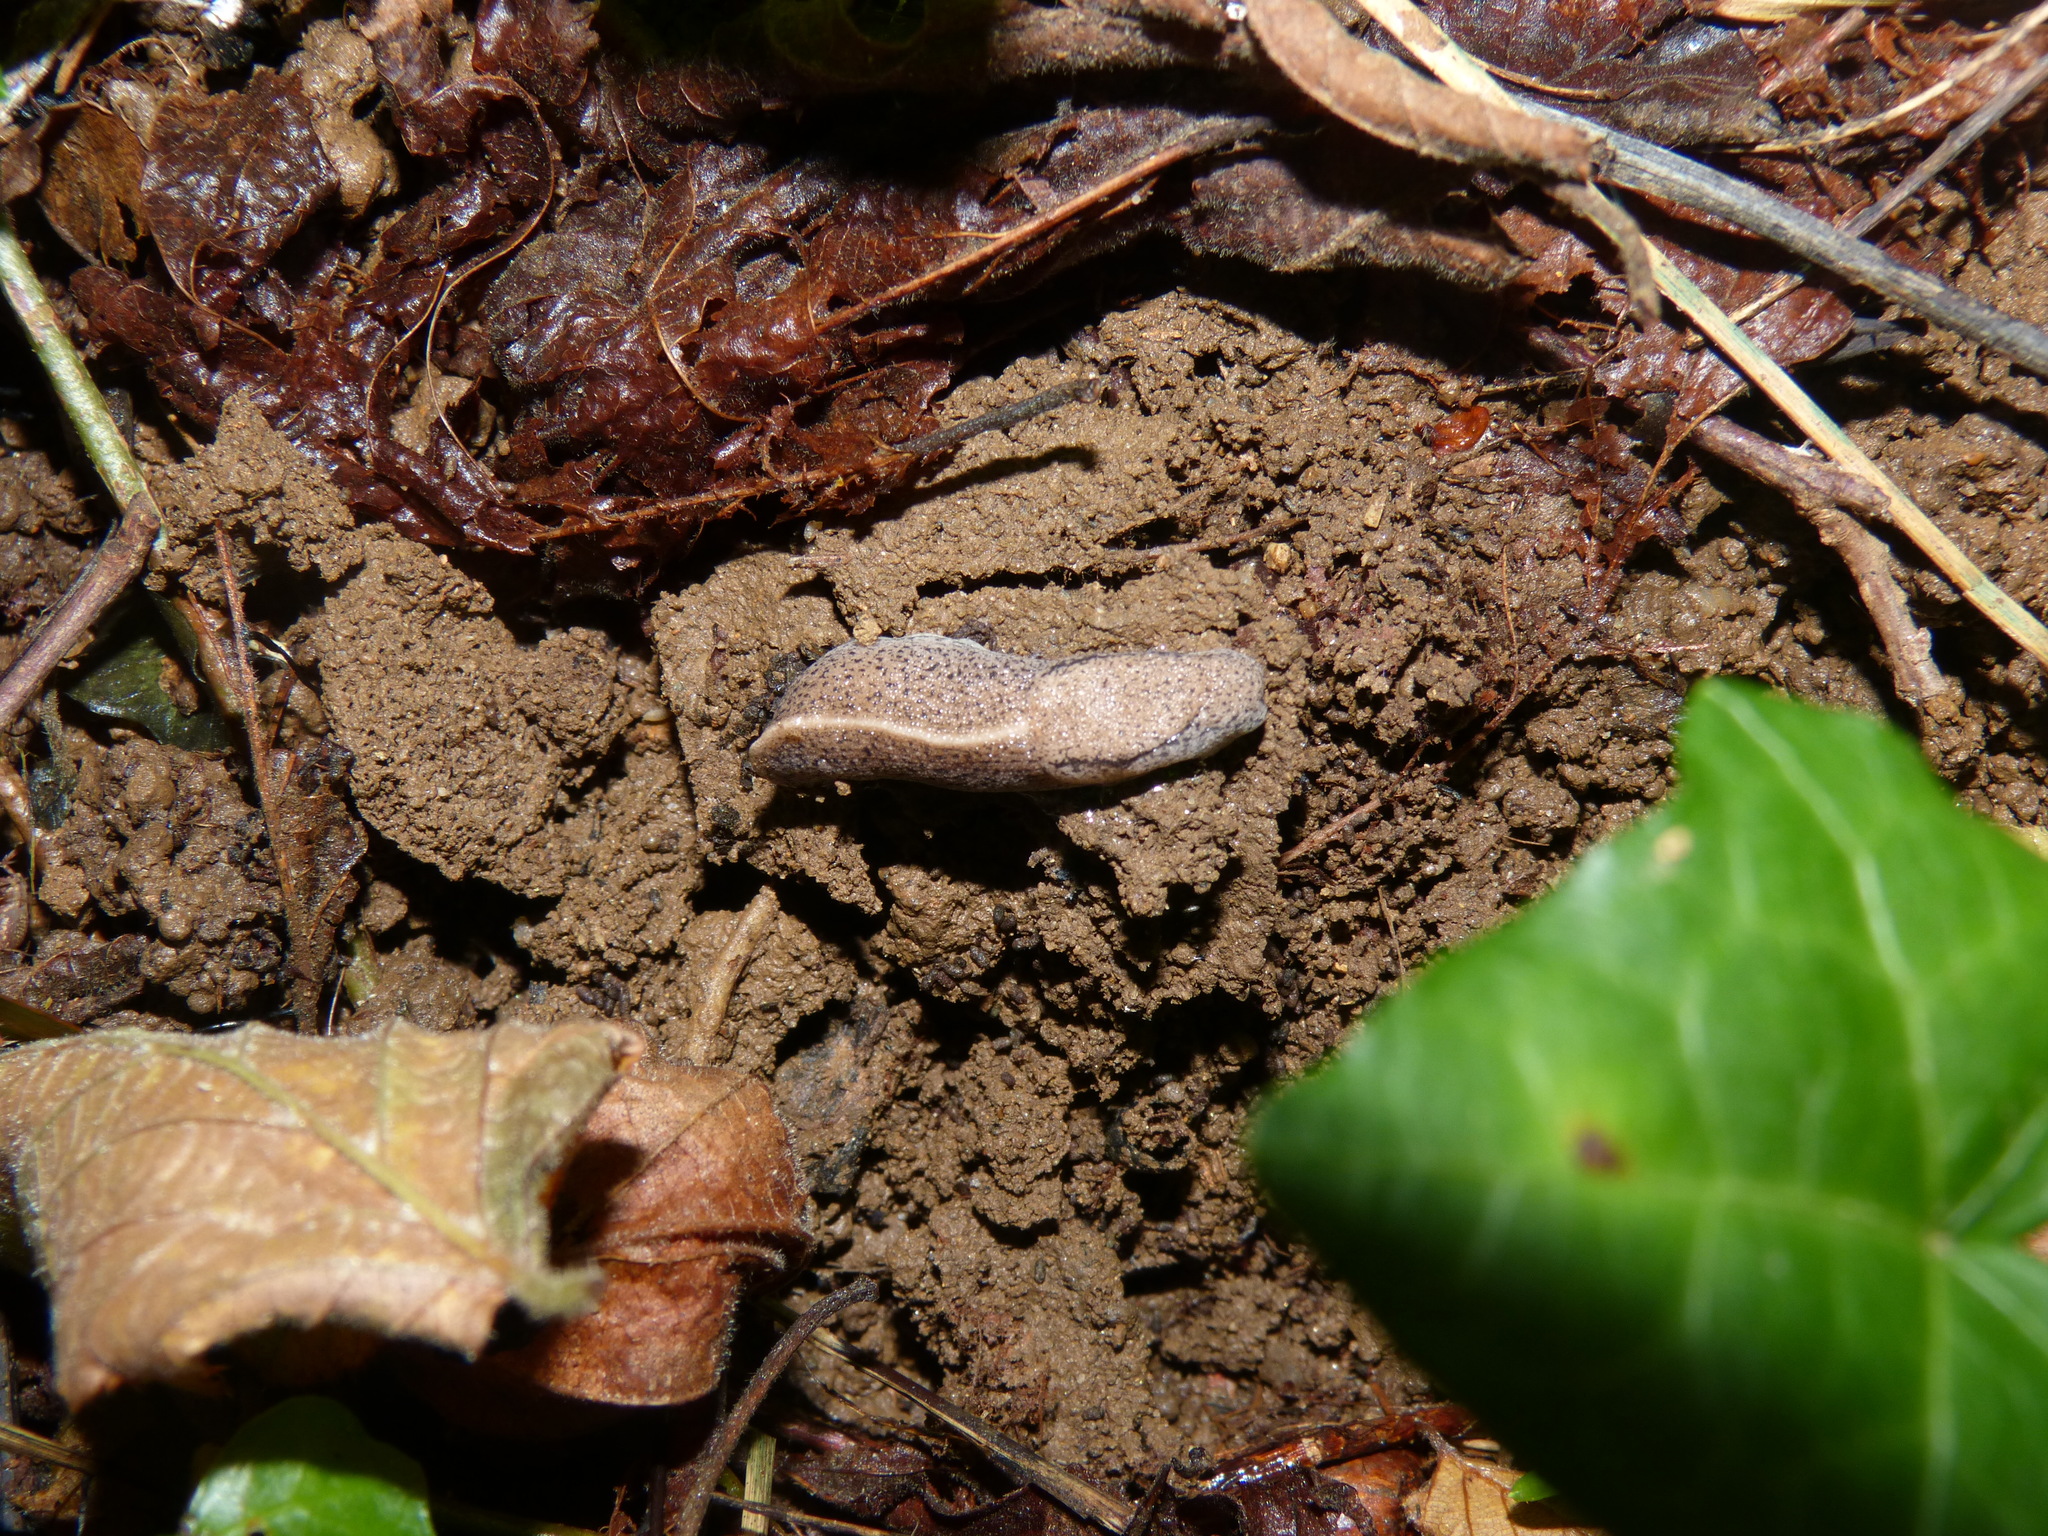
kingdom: Animalia
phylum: Mollusca
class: Gastropoda
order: Stylommatophora
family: Milacidae
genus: Tandonia
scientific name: Tandonia rustica
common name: Bulb-eating slug
